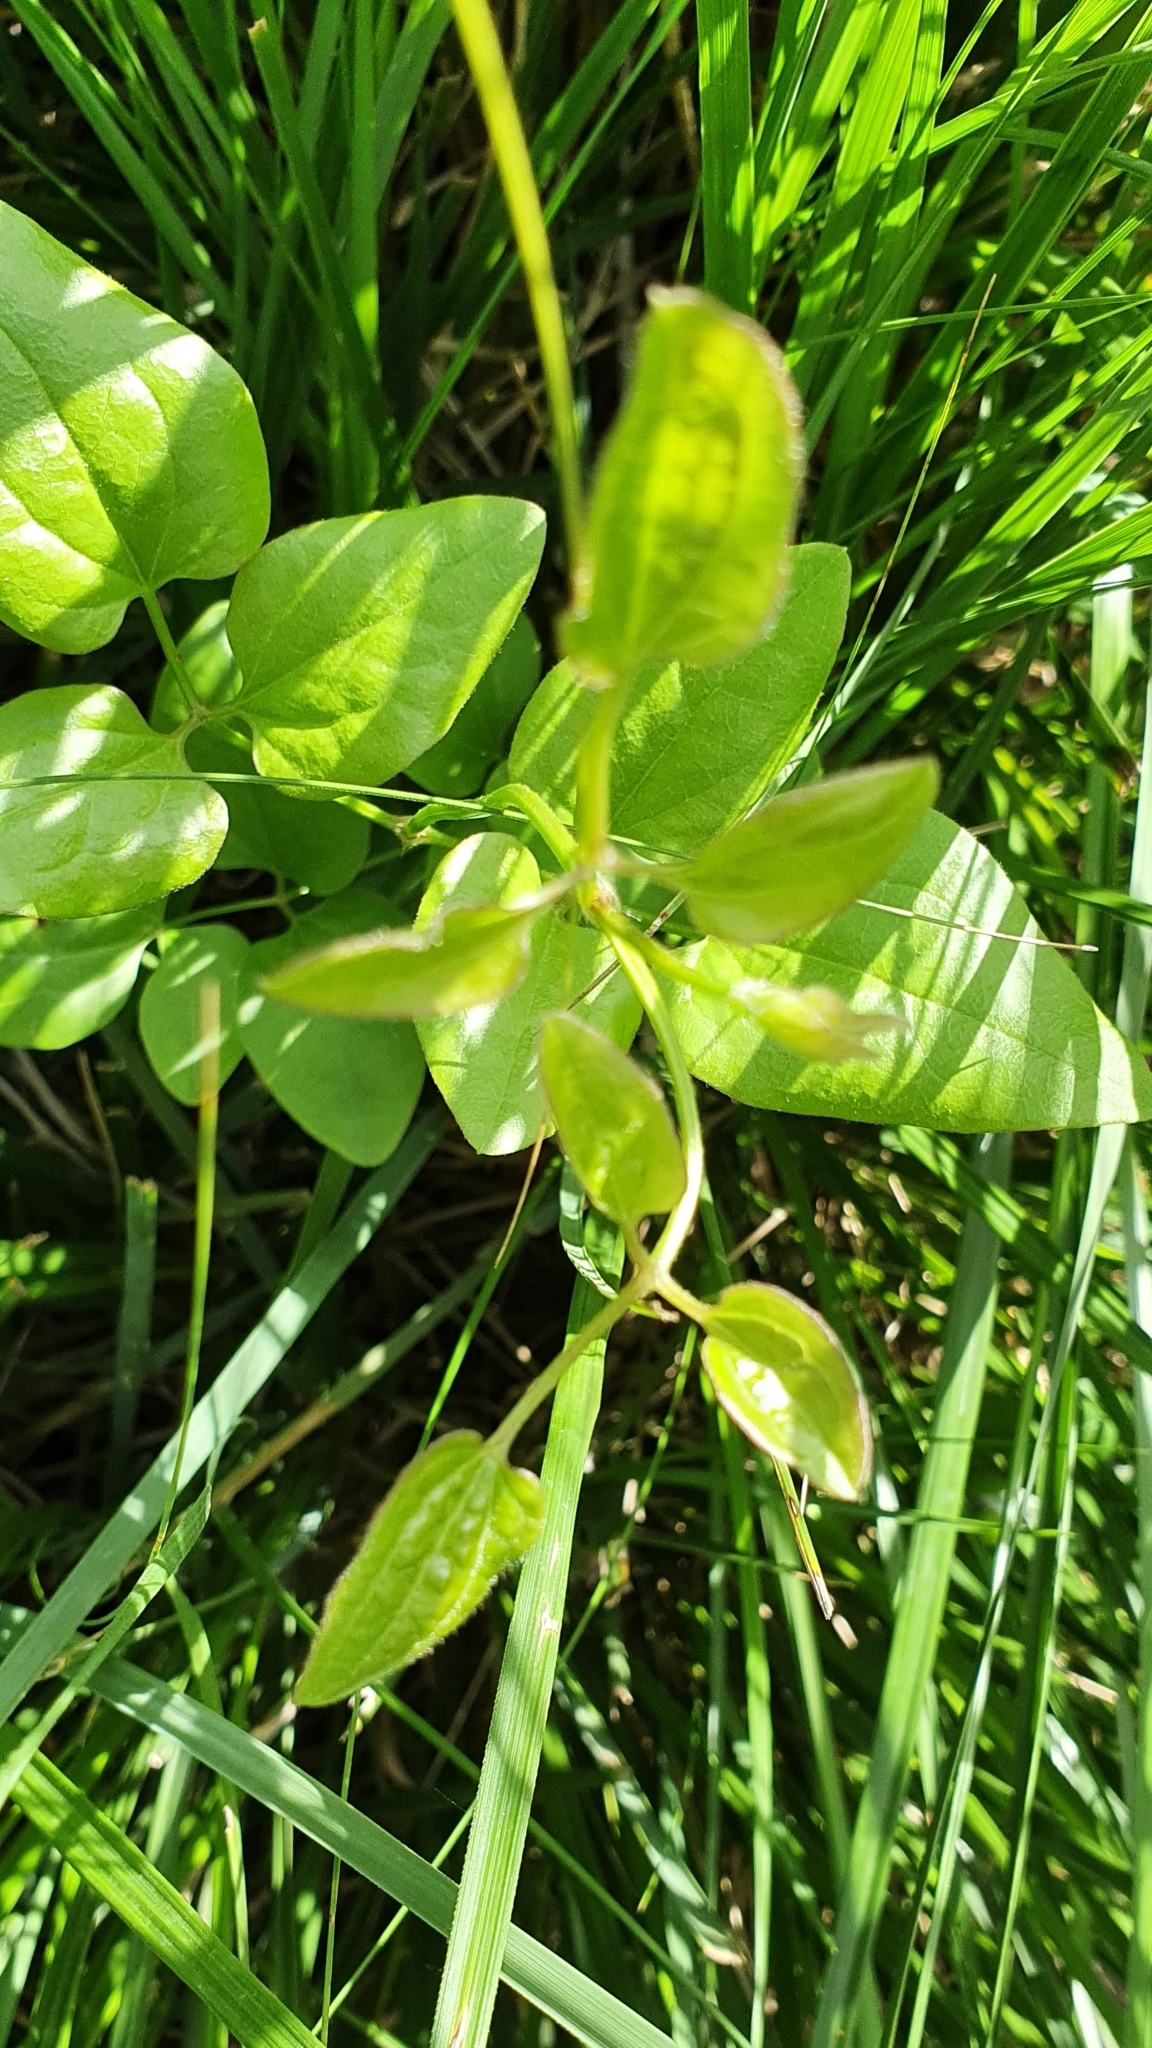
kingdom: Plantae
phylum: Tracheophyta
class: Magnoliopsida
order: Ranunculales
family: Ranunculaceae
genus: Clematis
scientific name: Clematis flammula
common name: Virgin's-bower
